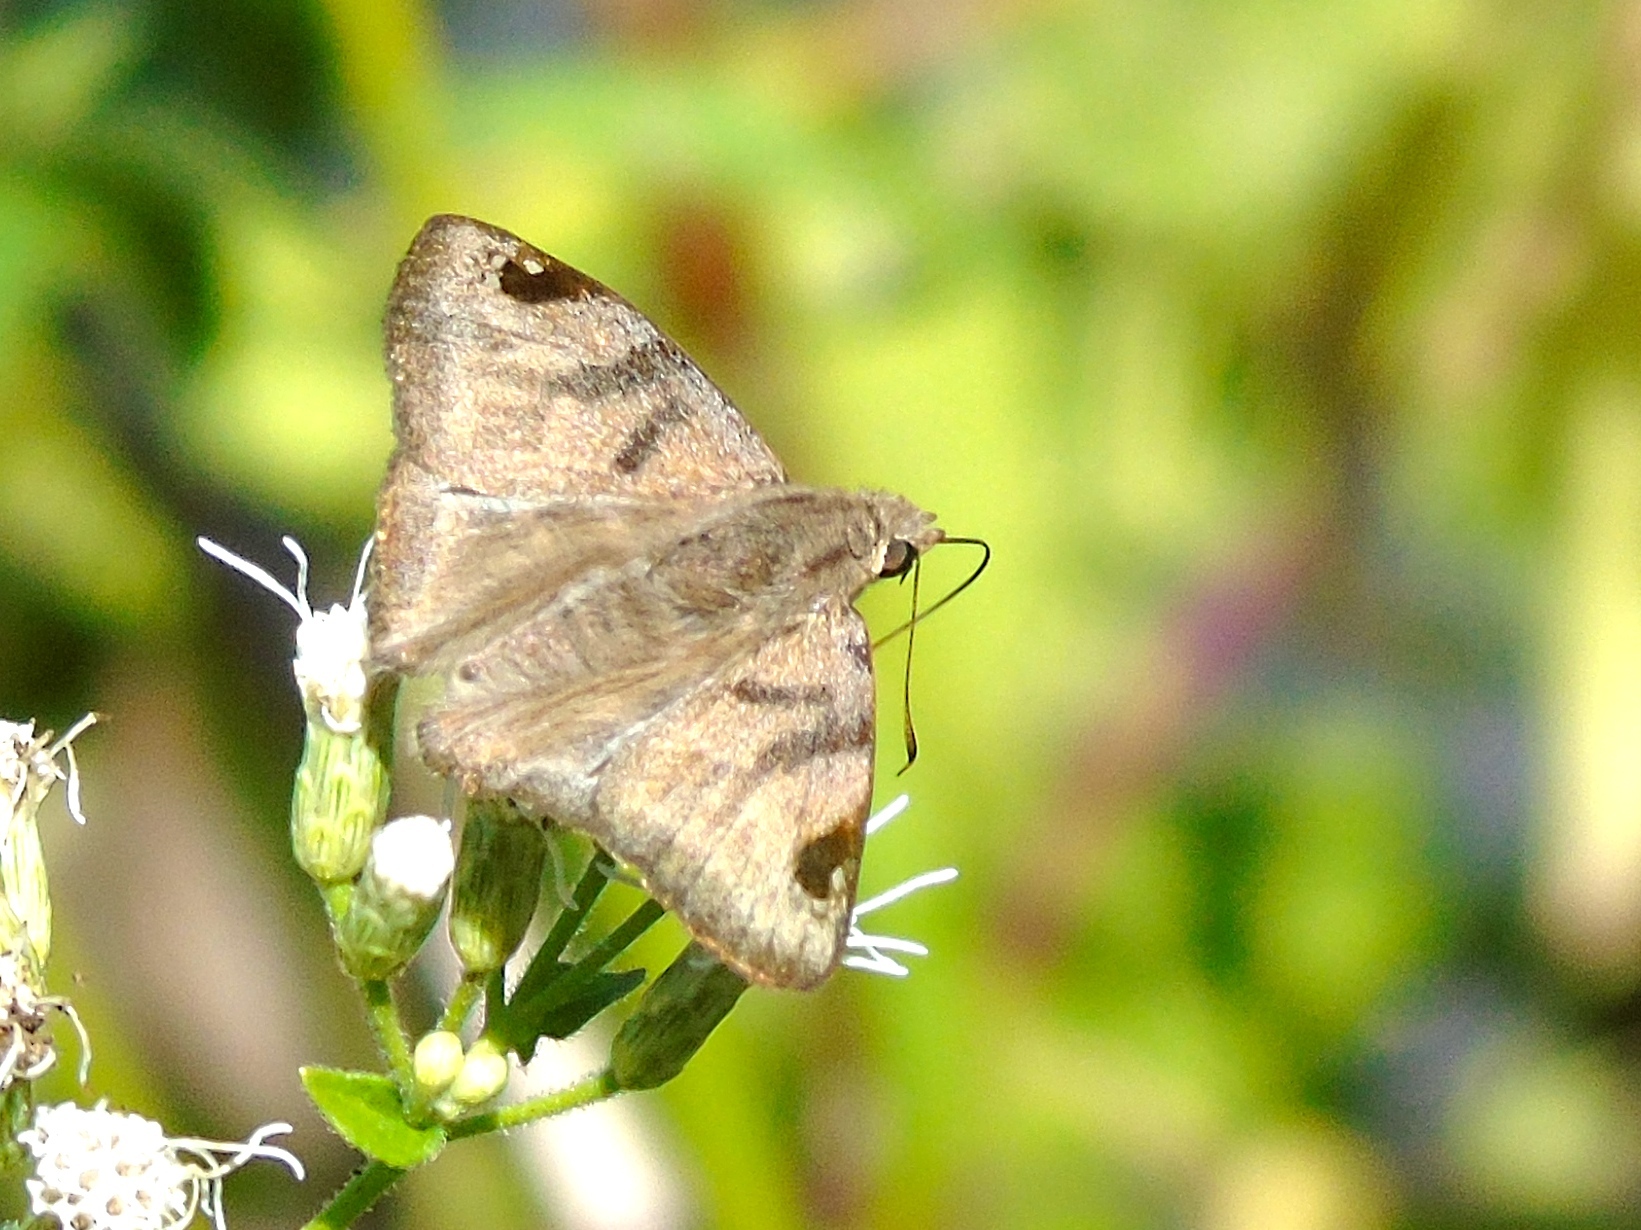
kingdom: Animalia
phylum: Arthropoda
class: Insecta
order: Lepidoptera
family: Hesperiidae
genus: Arteurotia
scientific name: Arteurotia tractipennis
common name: Starred skipper
